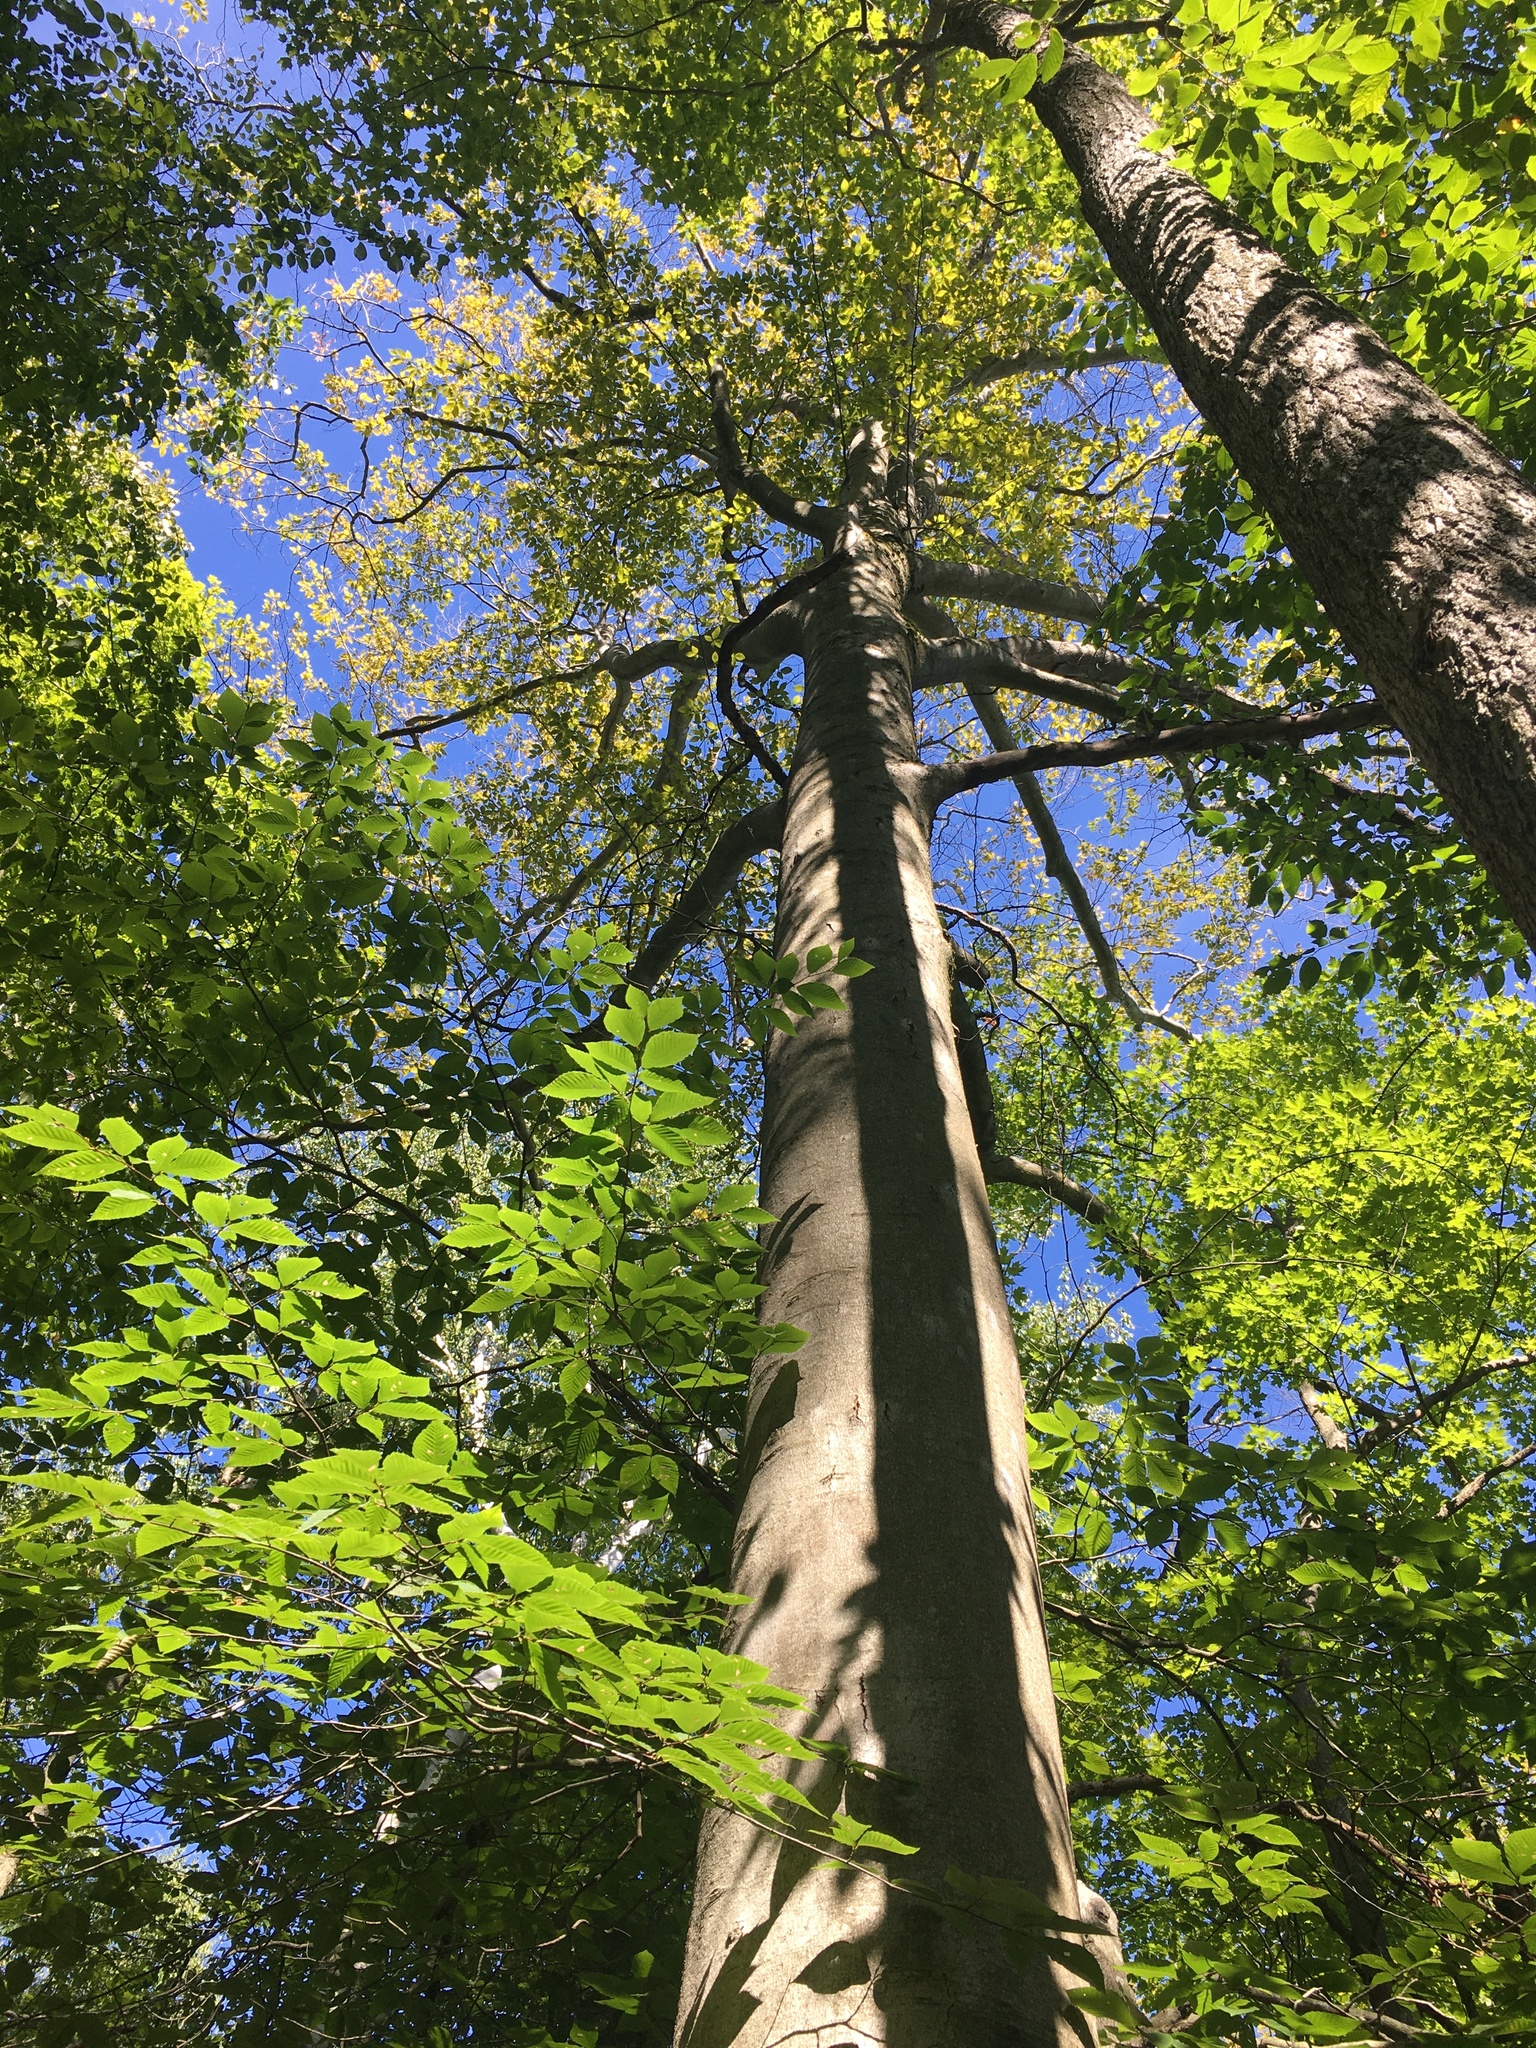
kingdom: Plantae
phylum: Tracheophyta
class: Magnoliopsida
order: Fagales
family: Fagaceae
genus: Fagus
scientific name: Fagus grandifolia
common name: American beech
